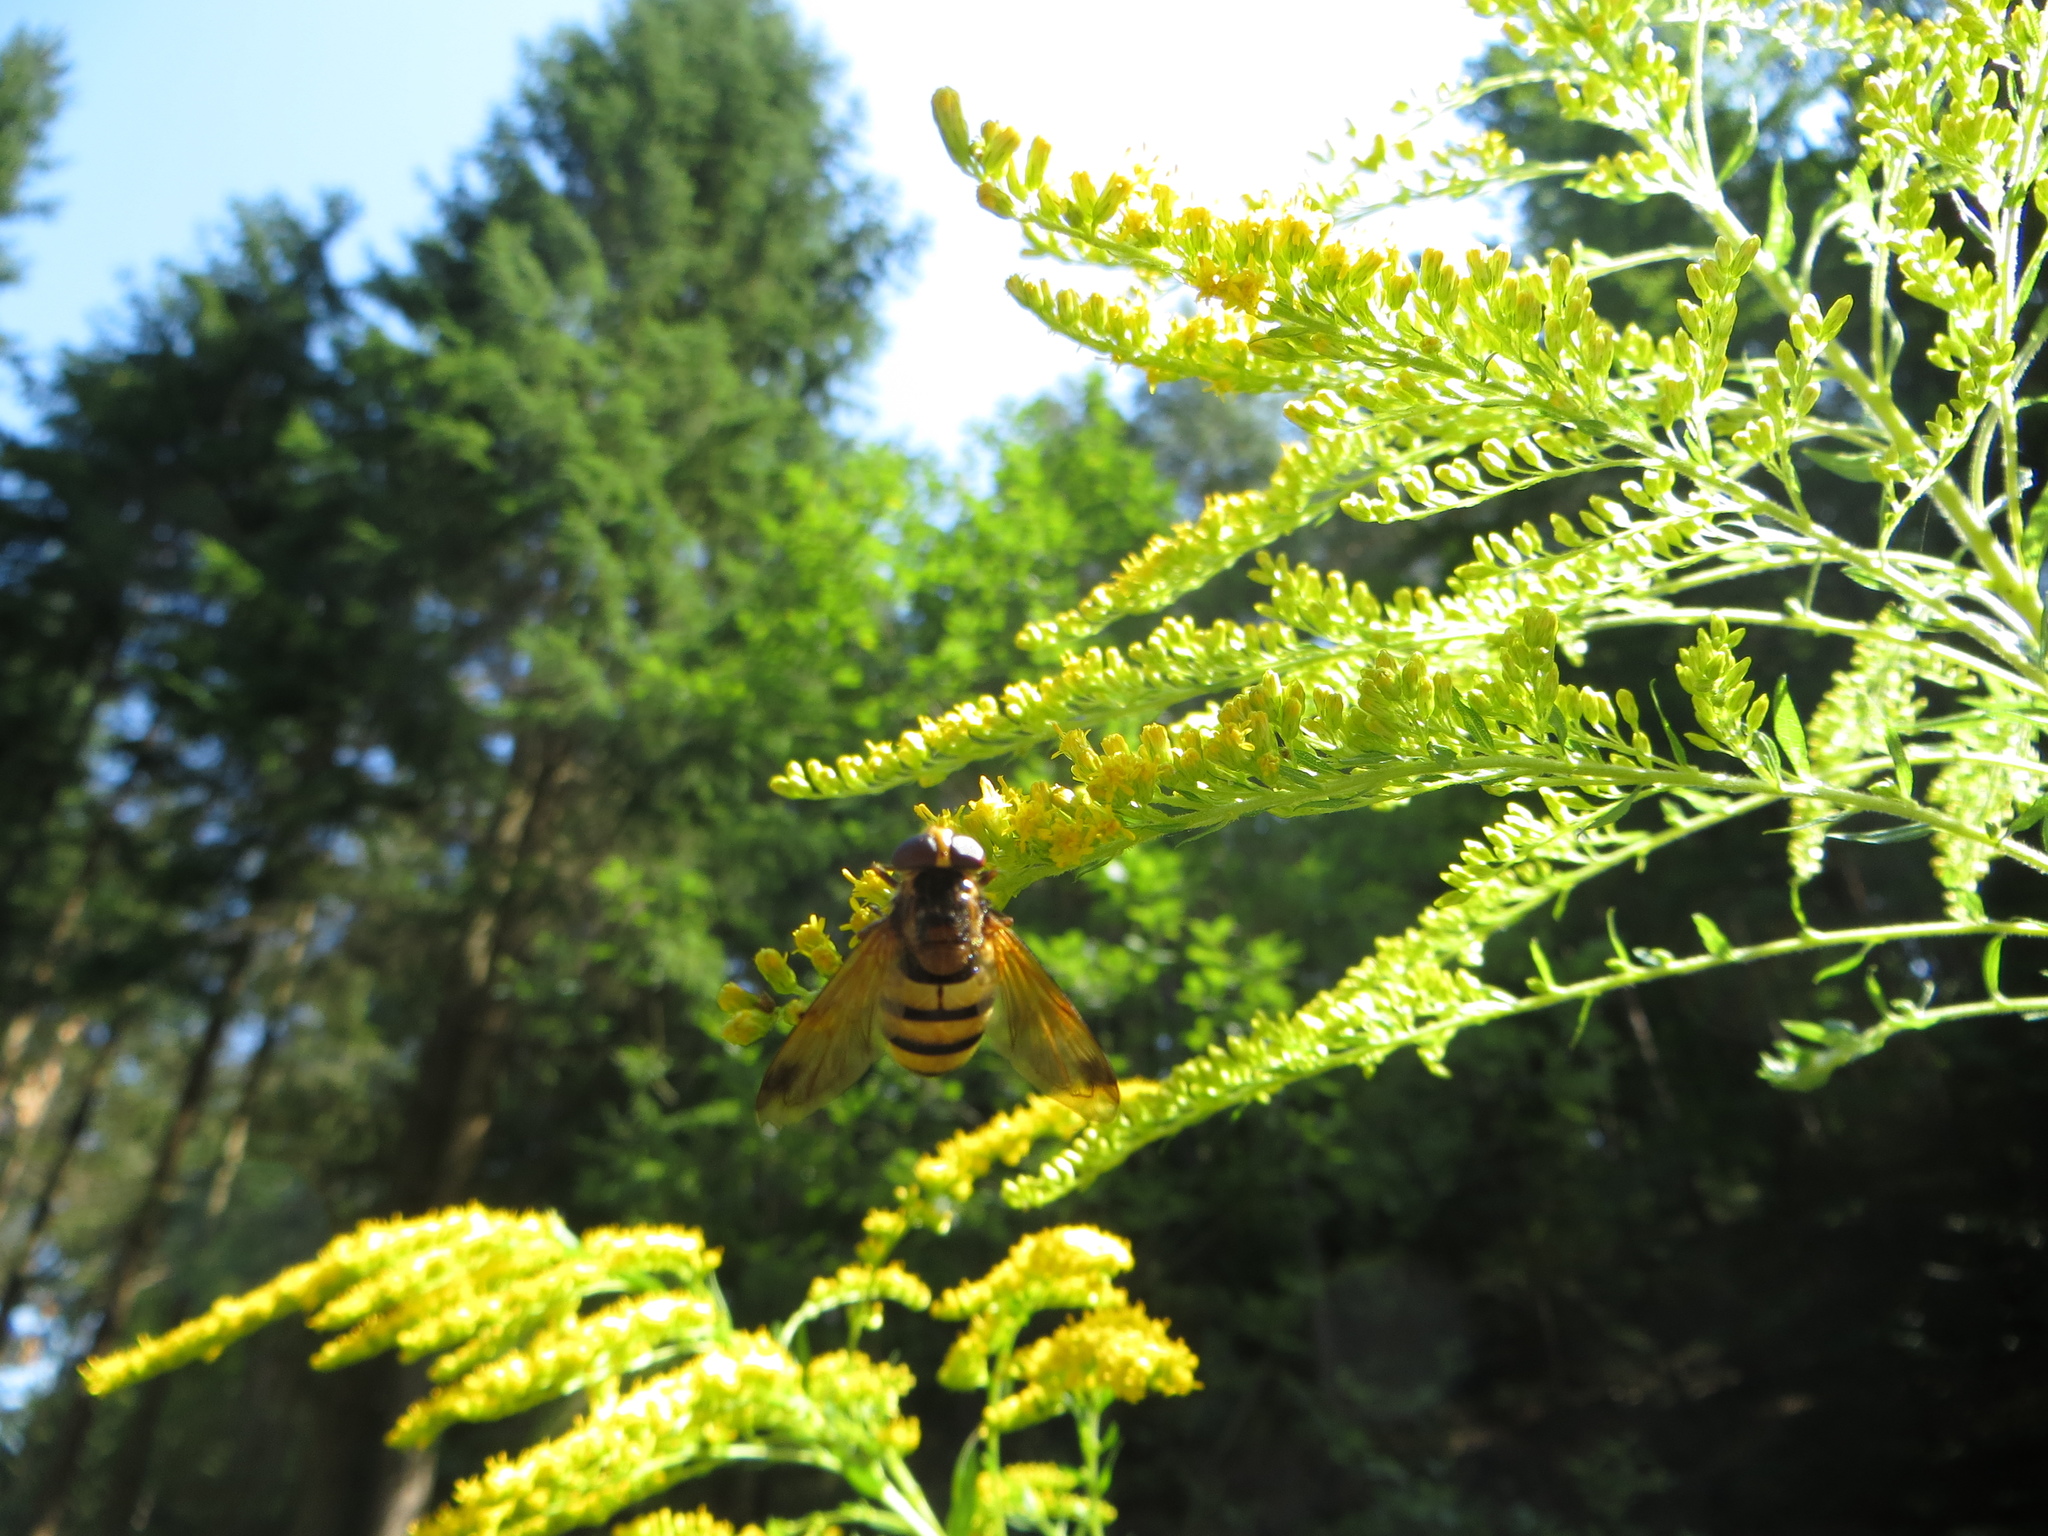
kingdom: Animalia
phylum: Arthropoda
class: Insecta
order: Diptera
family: Syrphidae
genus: Volucella
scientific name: Volucella inanis
